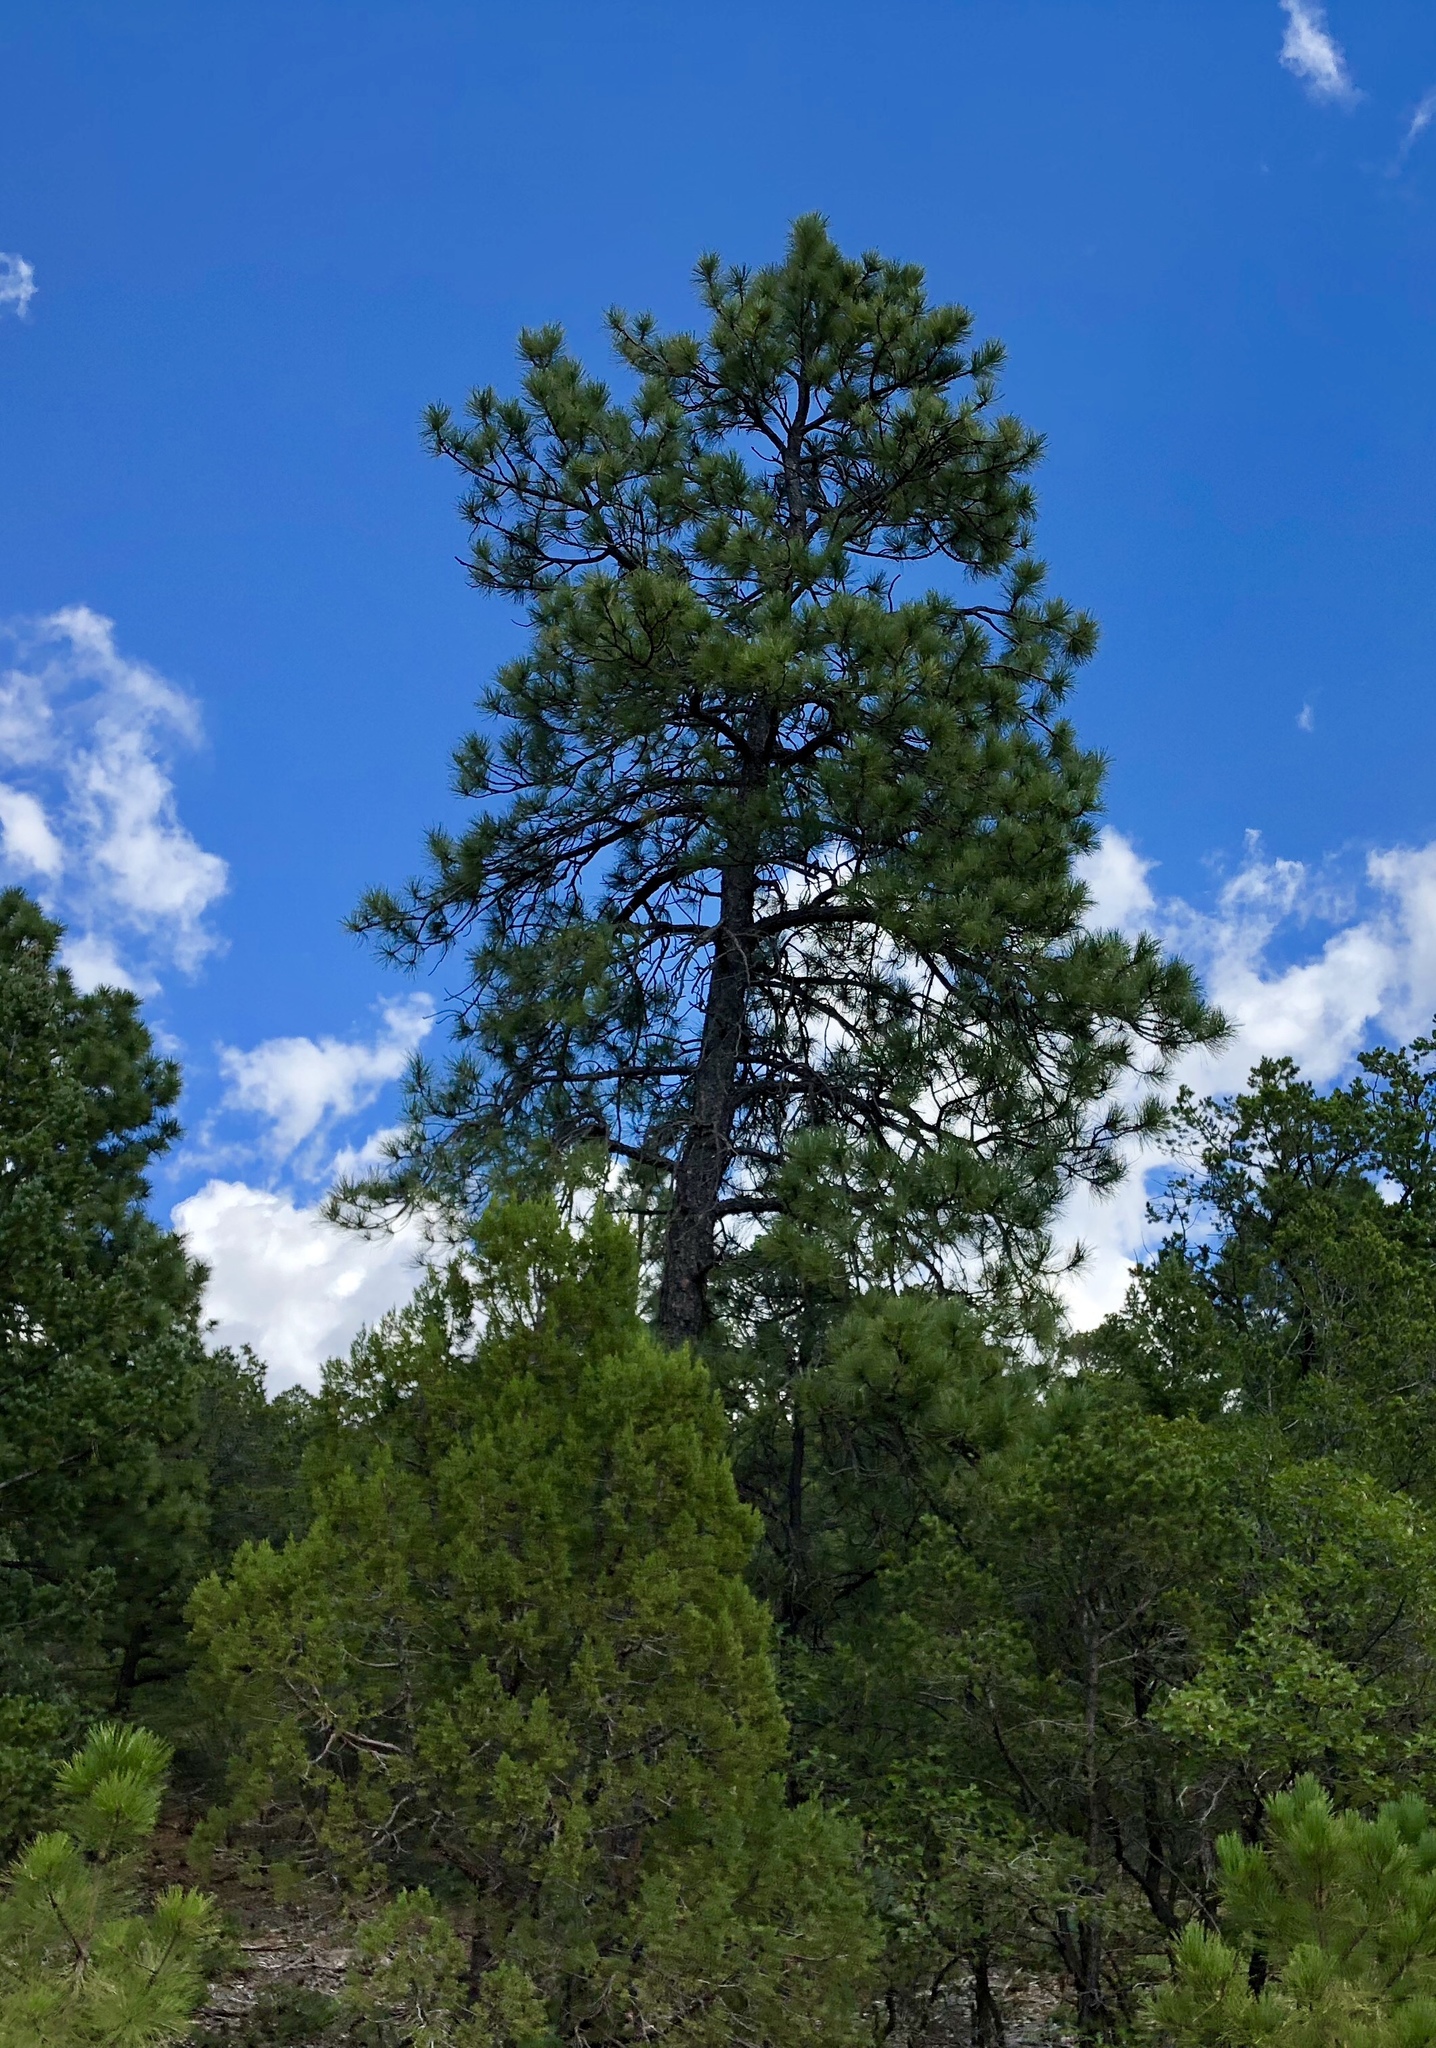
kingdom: Plantae
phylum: Tracheophyta
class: Pinopsida
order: Pinales
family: Pinaceae
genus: Pinus
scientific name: Pinus ponderosa
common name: Western yellow-pine
